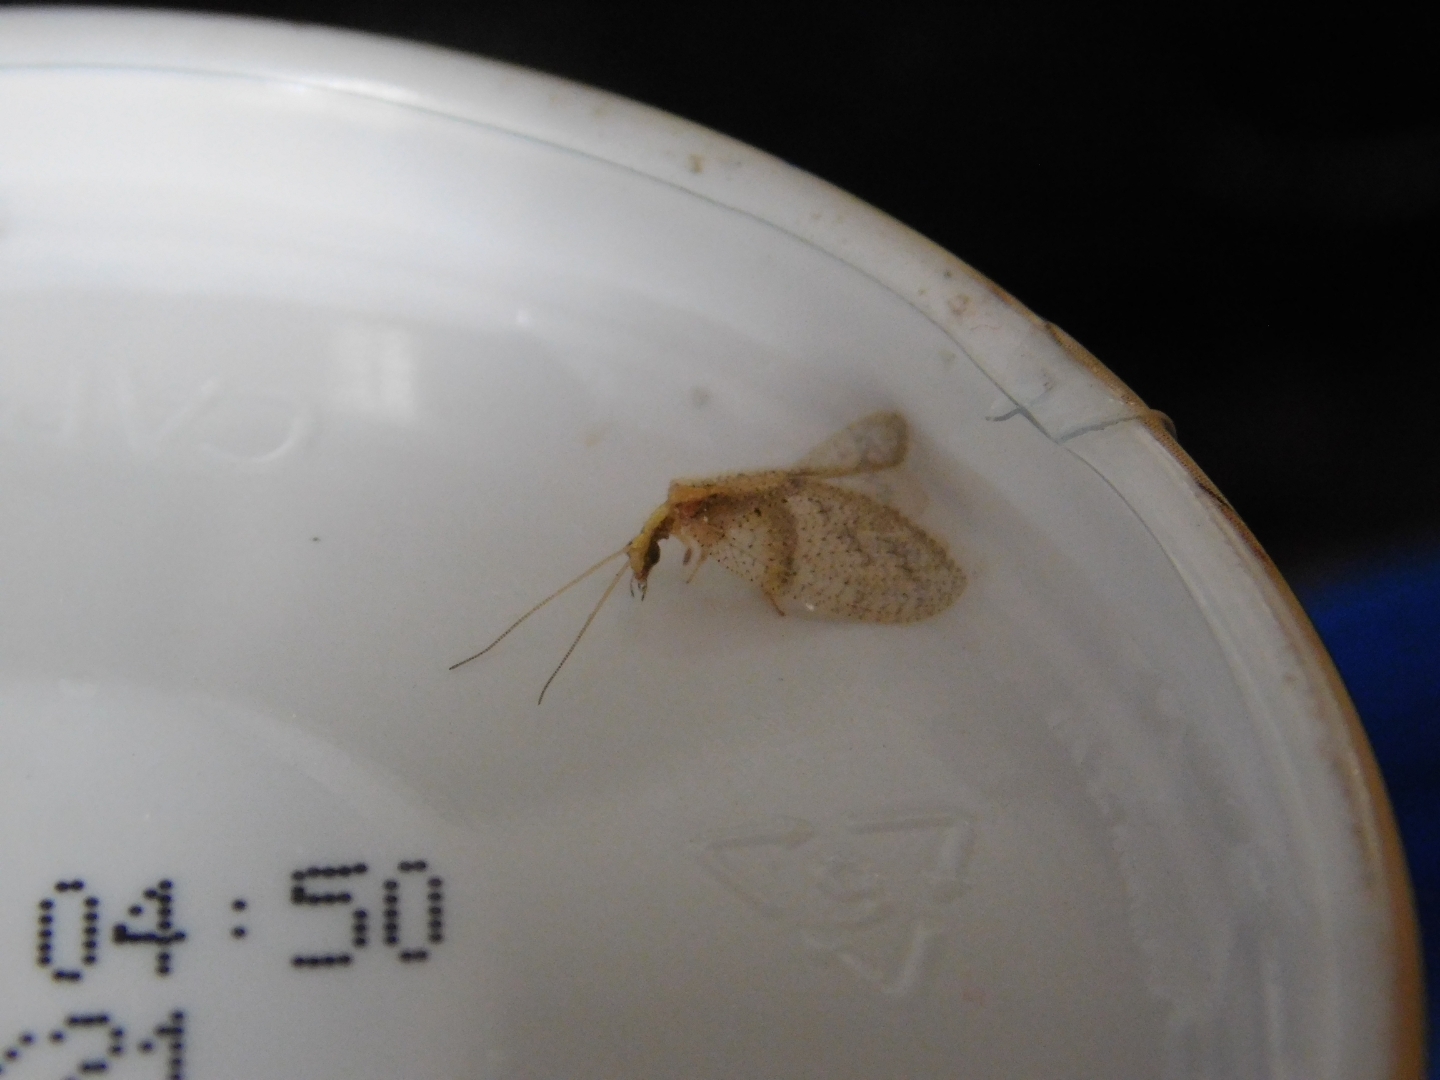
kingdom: Animalia
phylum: Arthropoda
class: Insecta
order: Neuroptera
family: Hemerobiidae
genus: Hemerobius
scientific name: Hemerobius bolivari
